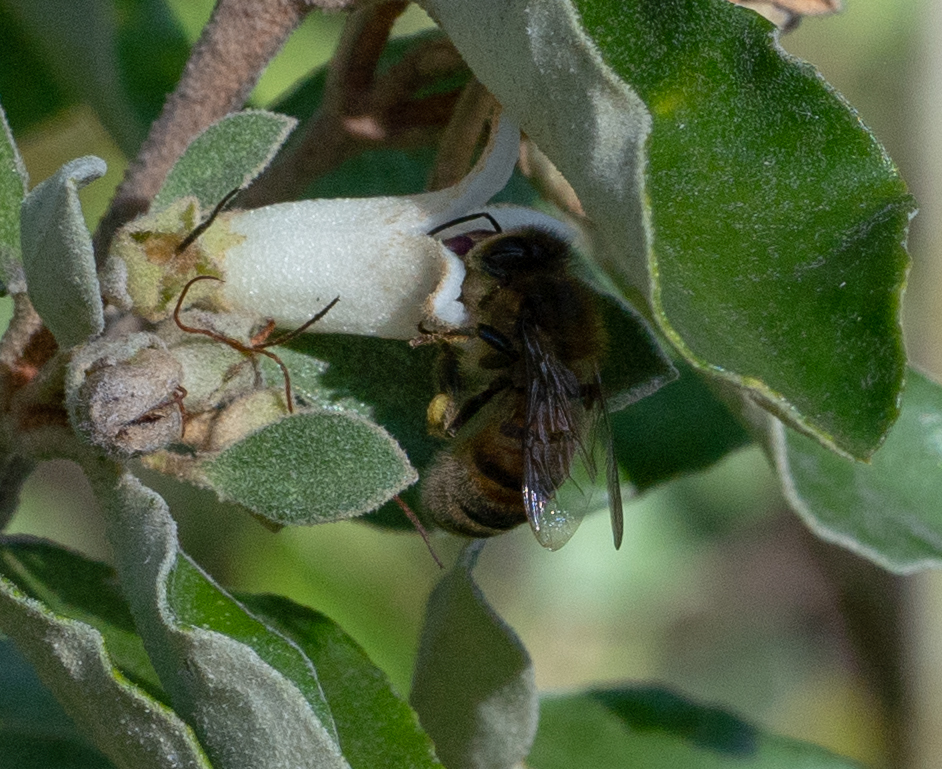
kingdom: Animalia
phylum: Arthropoda
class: Insecta
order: Hymenoptera
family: Apidae
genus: Apis
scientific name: Apis mellifera
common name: Honey bee
